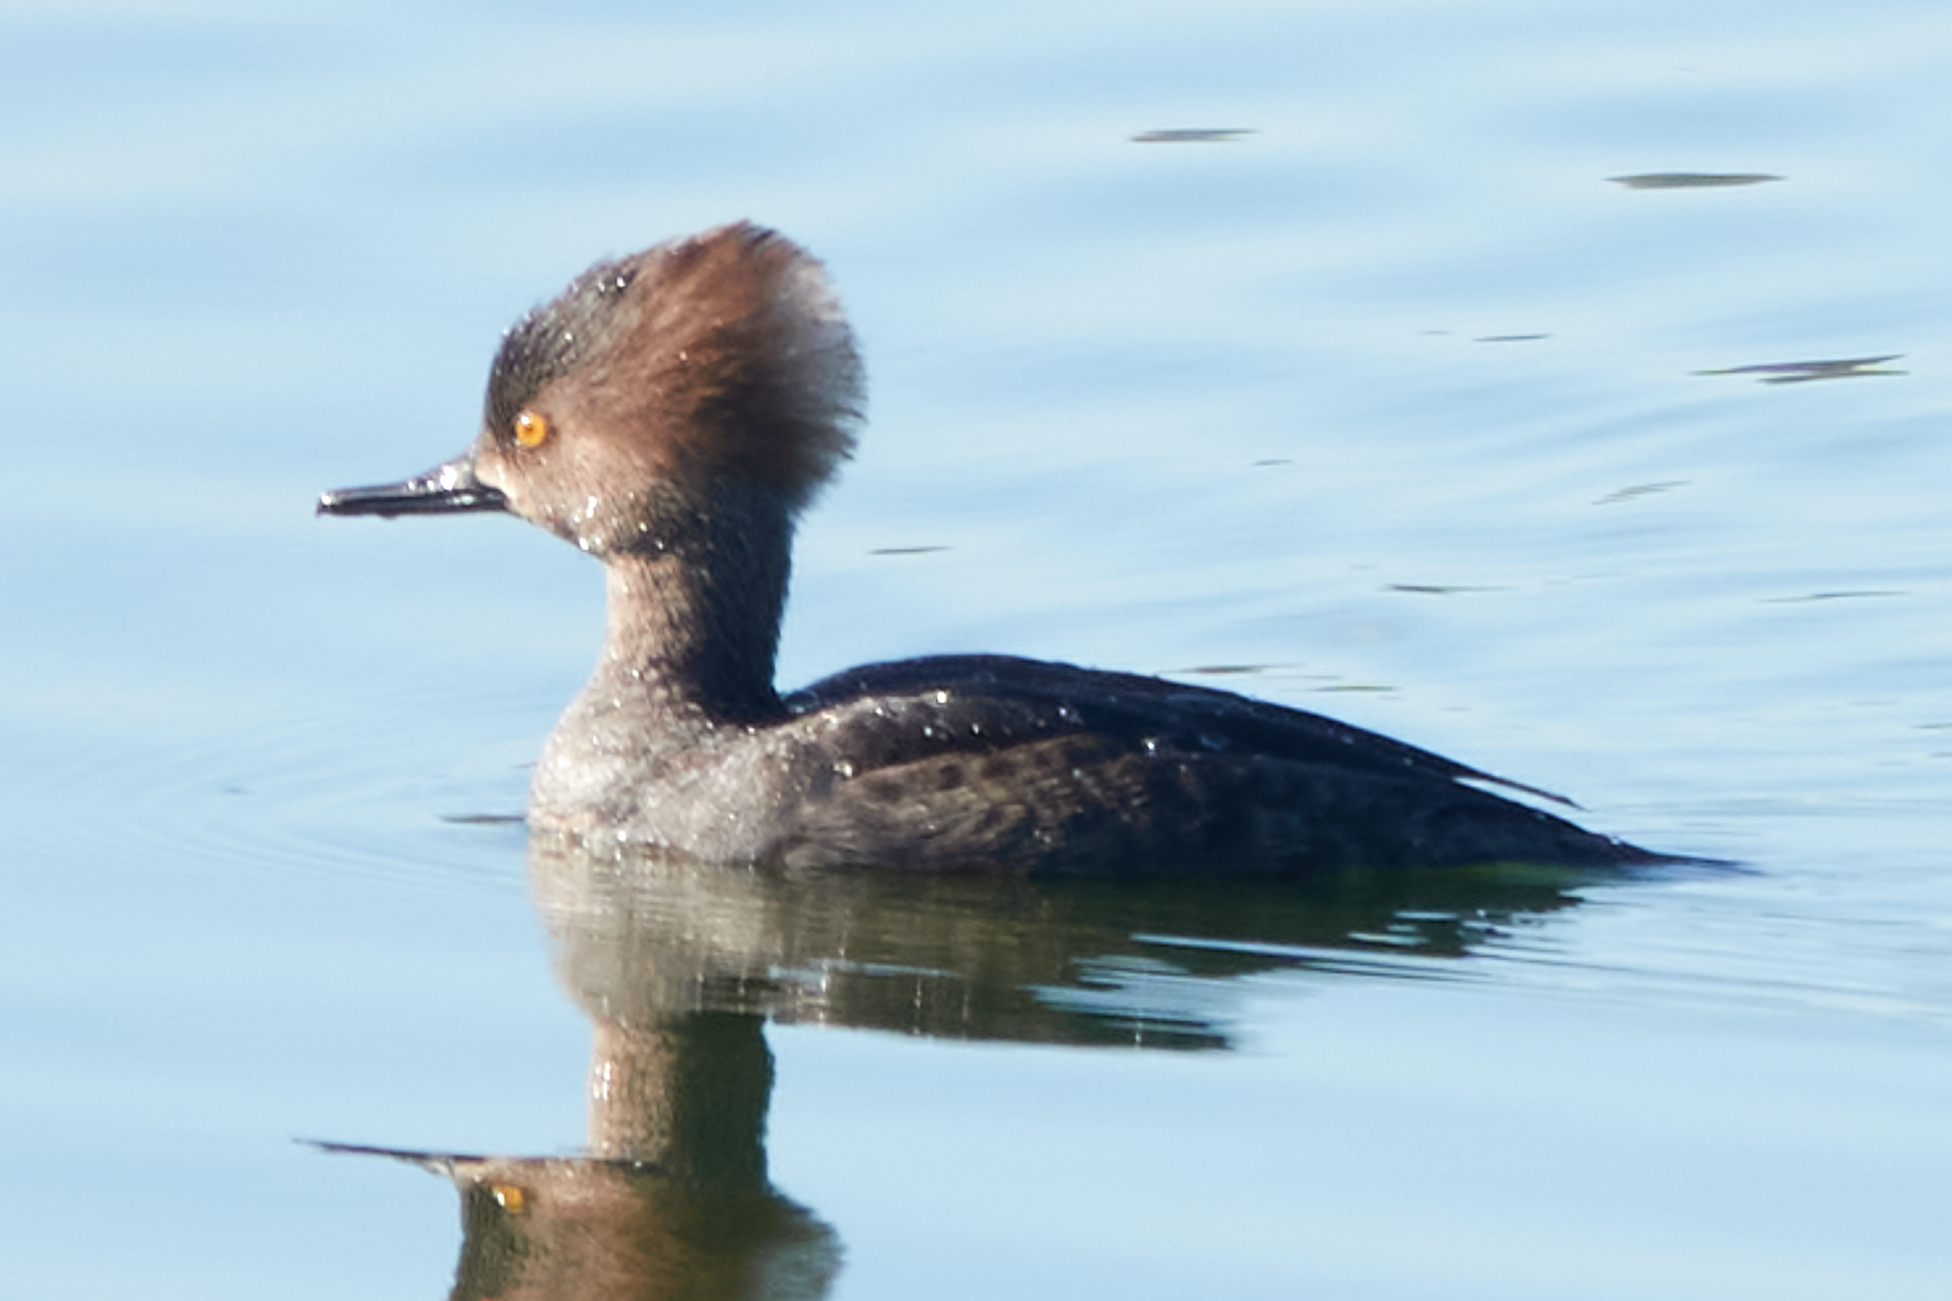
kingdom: Animalia
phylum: Chordata
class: Aves
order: Anseriformes
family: Anatidae
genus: Lophodytes
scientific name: Lophodytes cucullatus
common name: Hooded merganser
